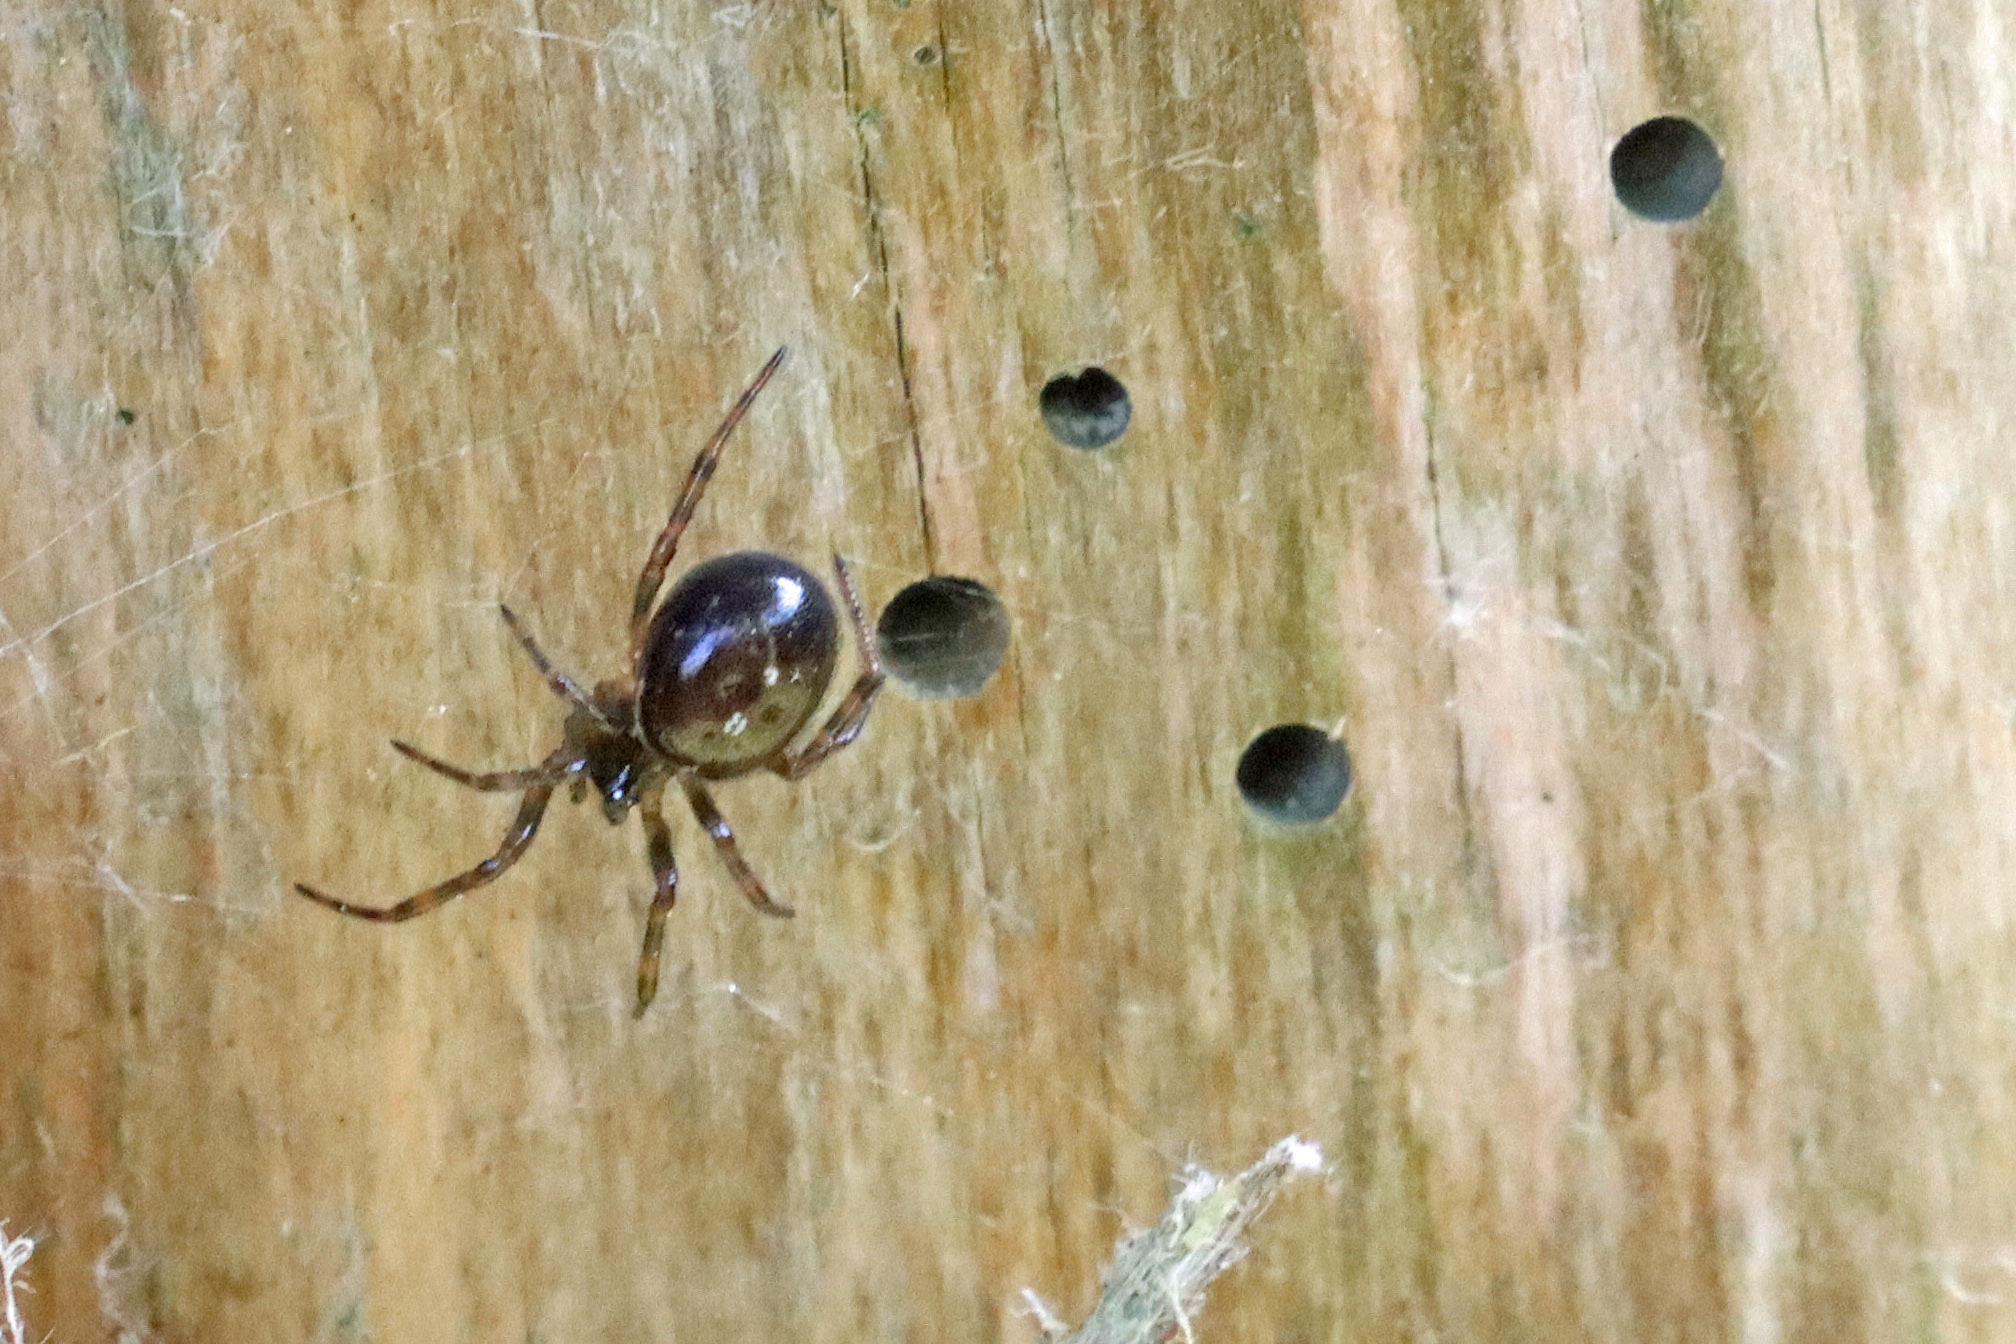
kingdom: Animalia
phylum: Arthropoda
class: Arachnida
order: Araneae
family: Theridiidae
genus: Steatoda
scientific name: Steatoda bipunctata
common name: False widow
